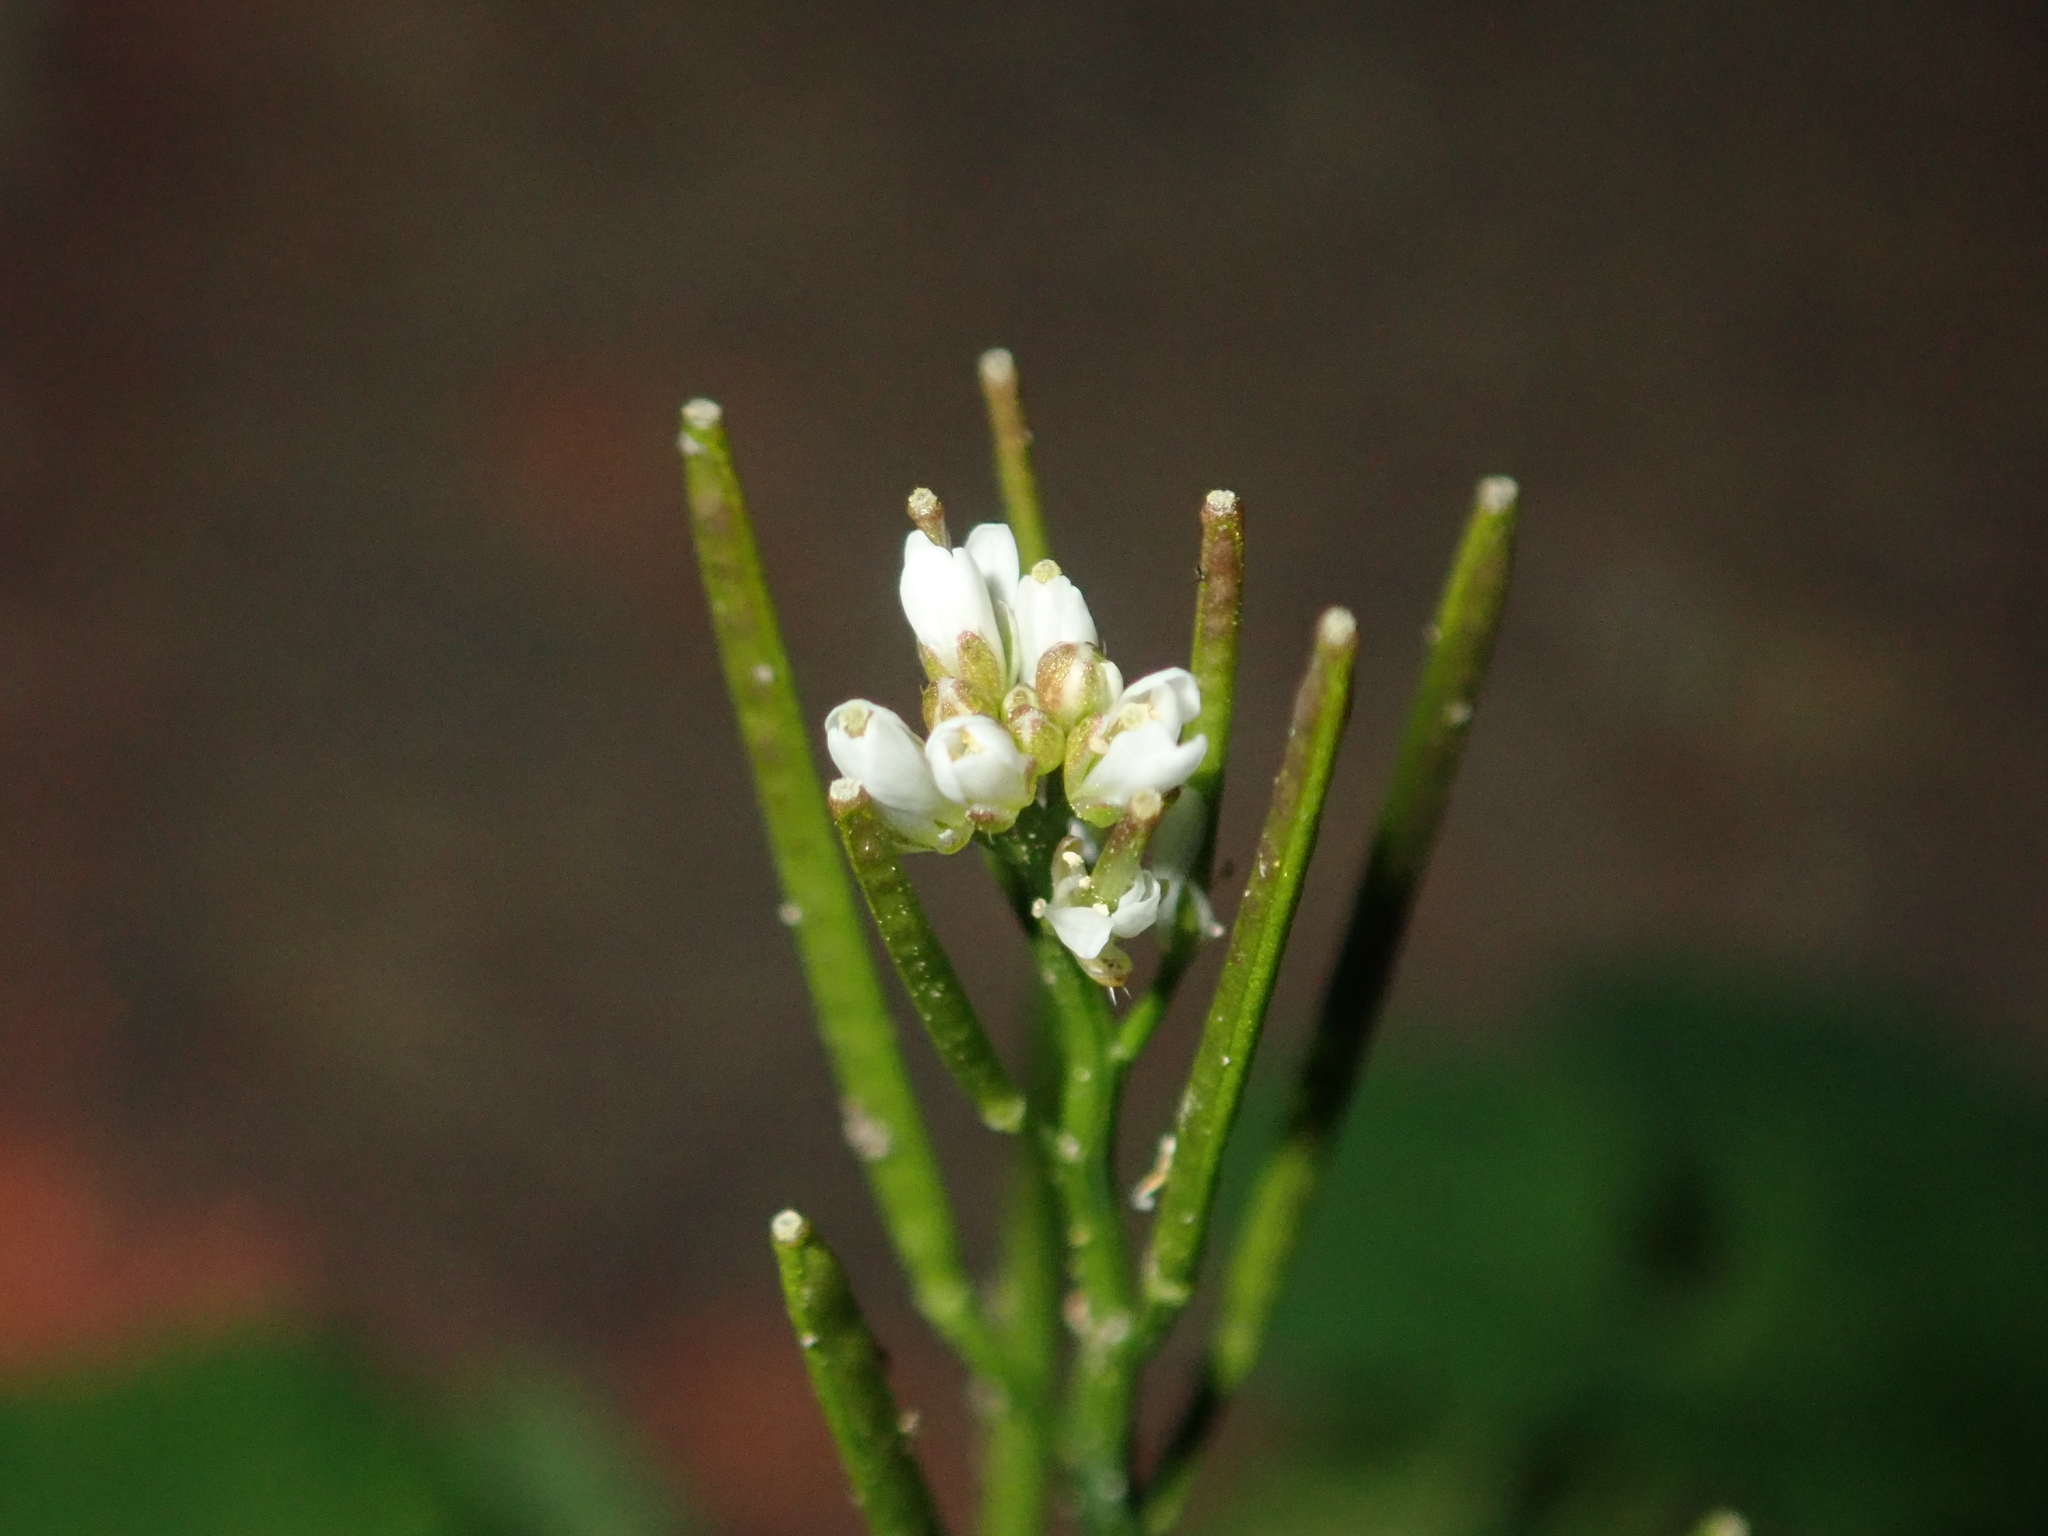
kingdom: Plantae
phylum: Tracheophyta
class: Magnoliopsida
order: Brassicales
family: Brassicaceae
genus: Cardamine
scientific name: Cardamine hirsuta
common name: Hairy bittercress
